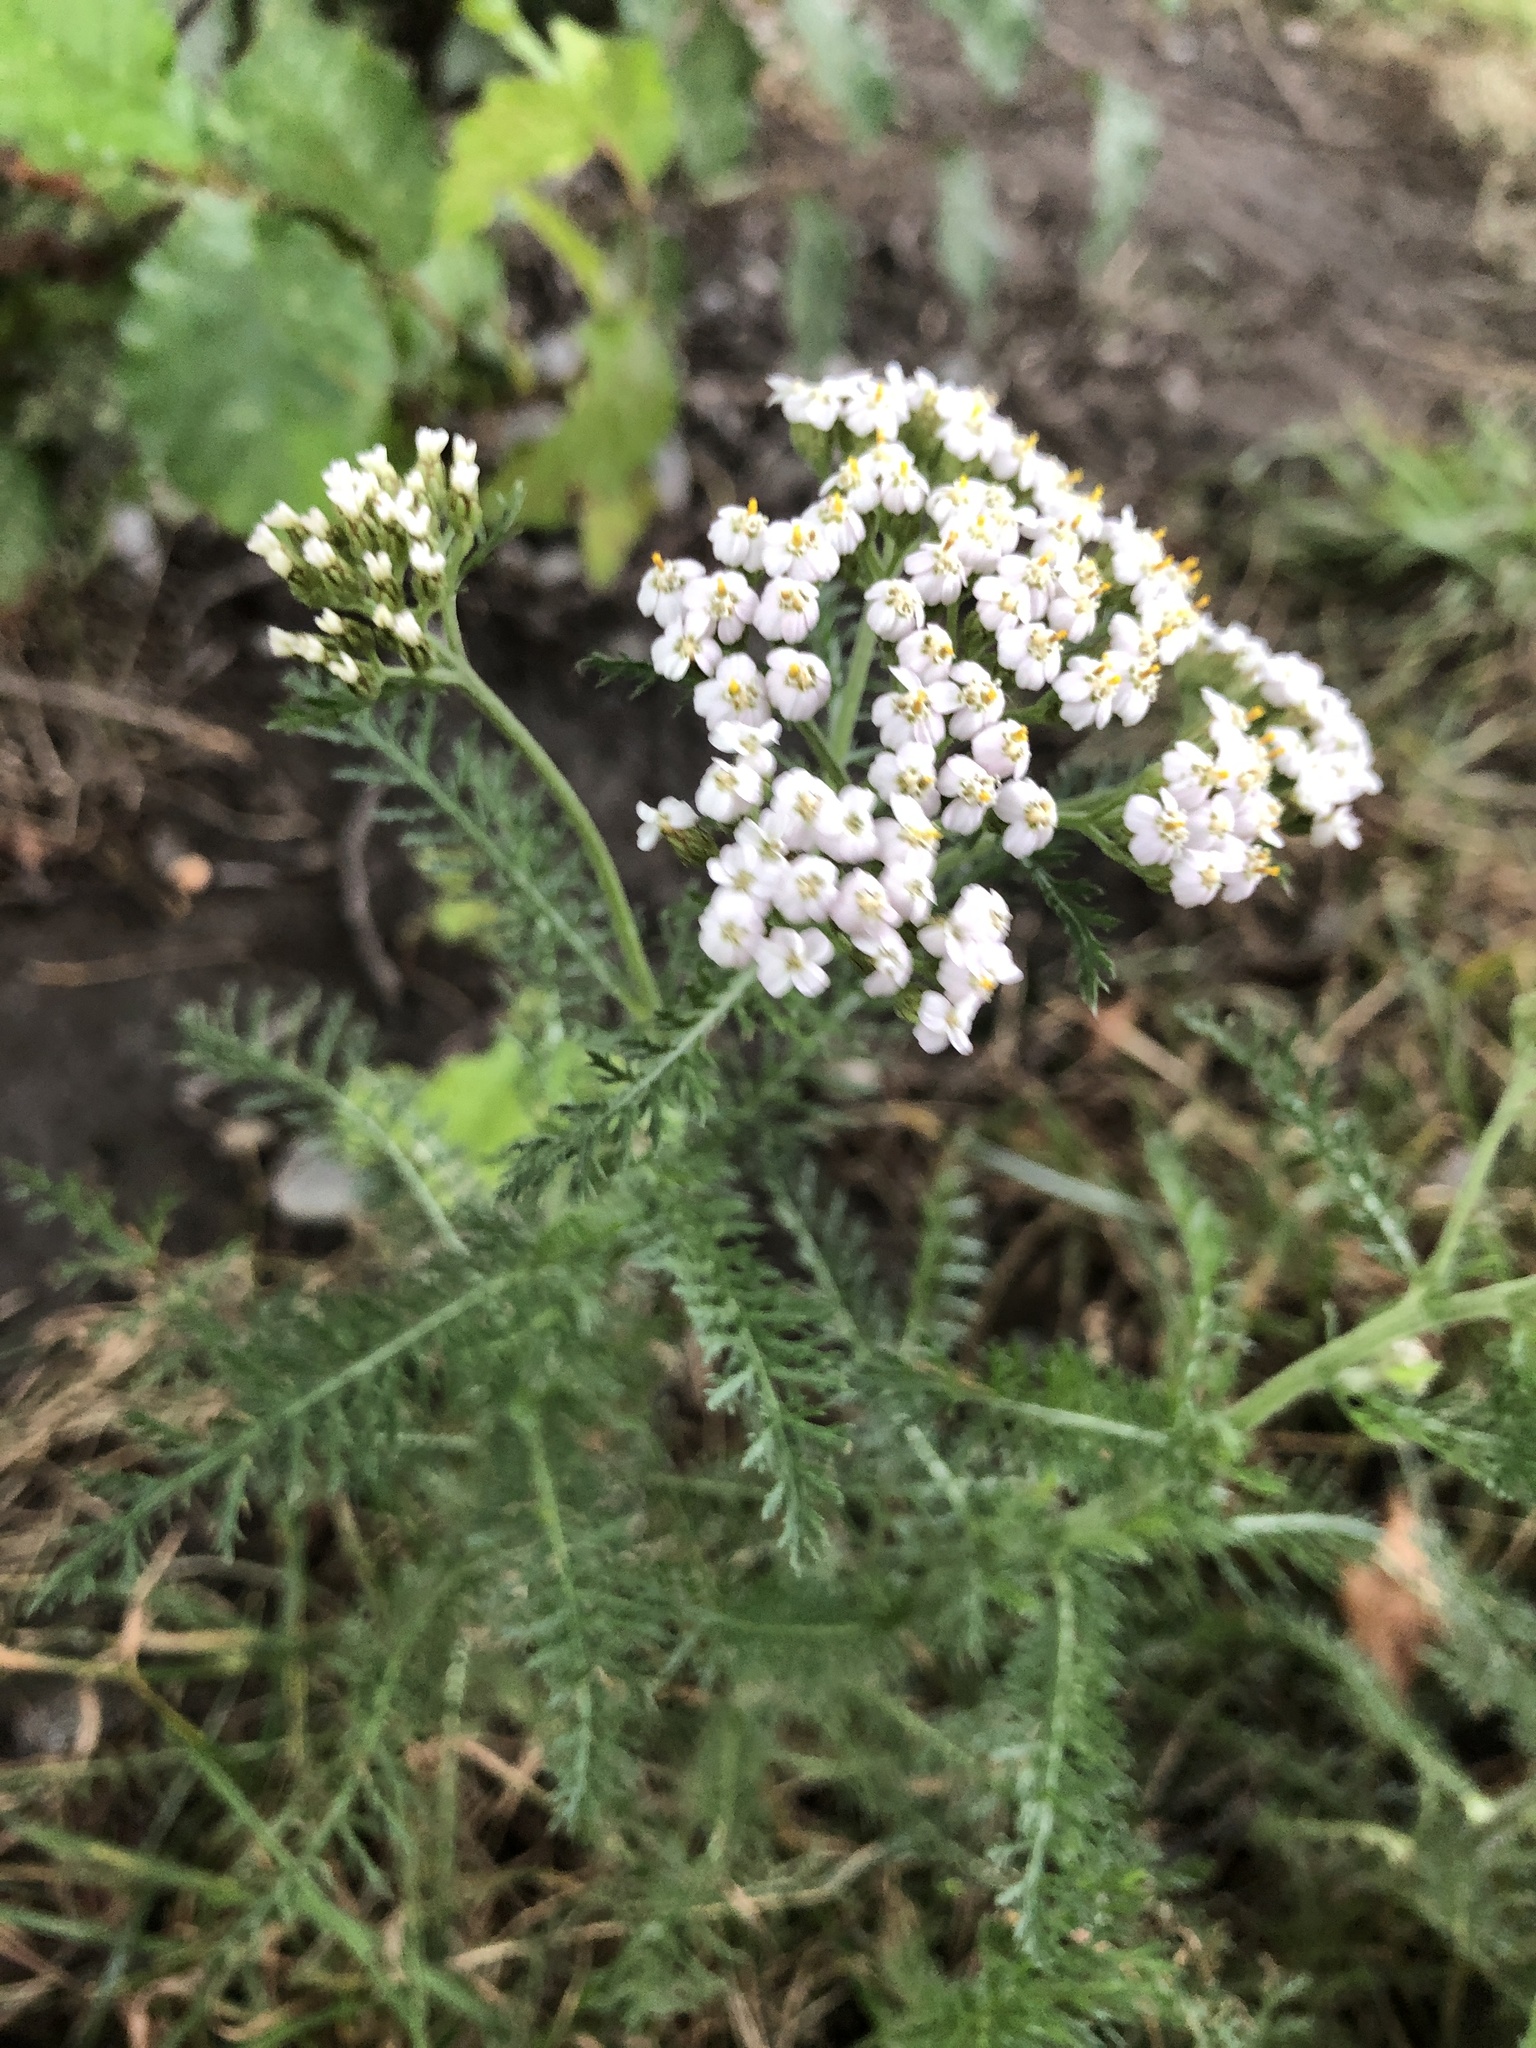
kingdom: Plantae
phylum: Tracheophyta
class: Magnoliopsida
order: Asterales
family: Asteraceae
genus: Achillea
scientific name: Achillea millefolium
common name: Yarrow
